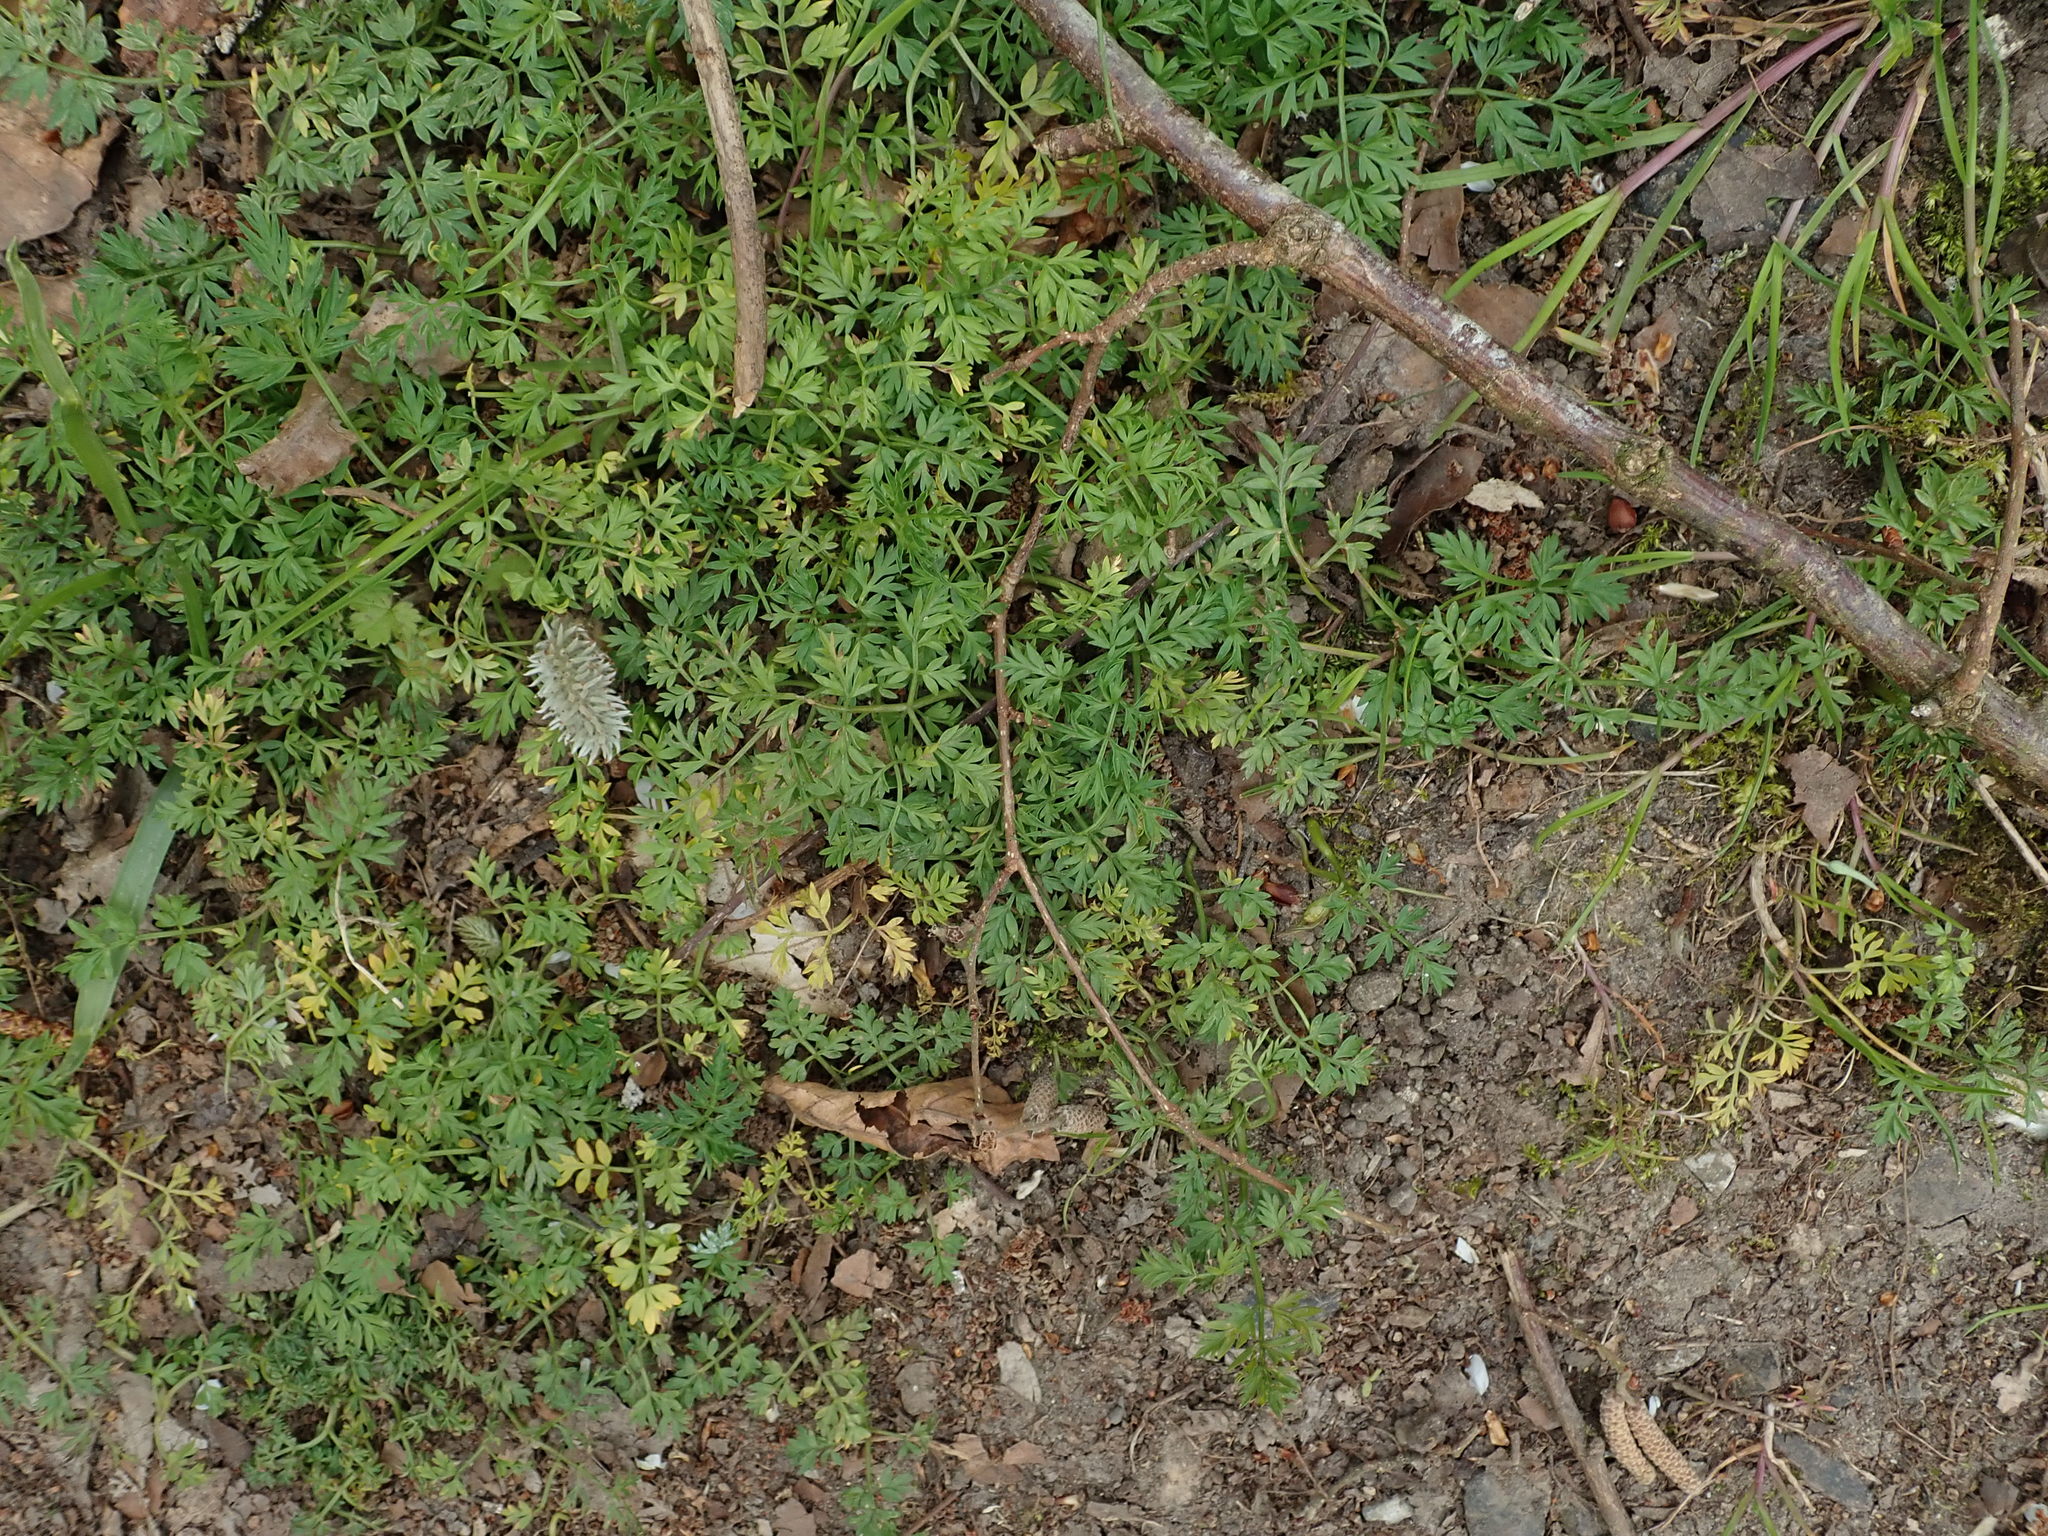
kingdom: Plantae
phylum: Tracheophyta
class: Magnoliopsida
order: Apiales
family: Apiaceae
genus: Conopodium
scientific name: Conopodium majus
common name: Pignut
